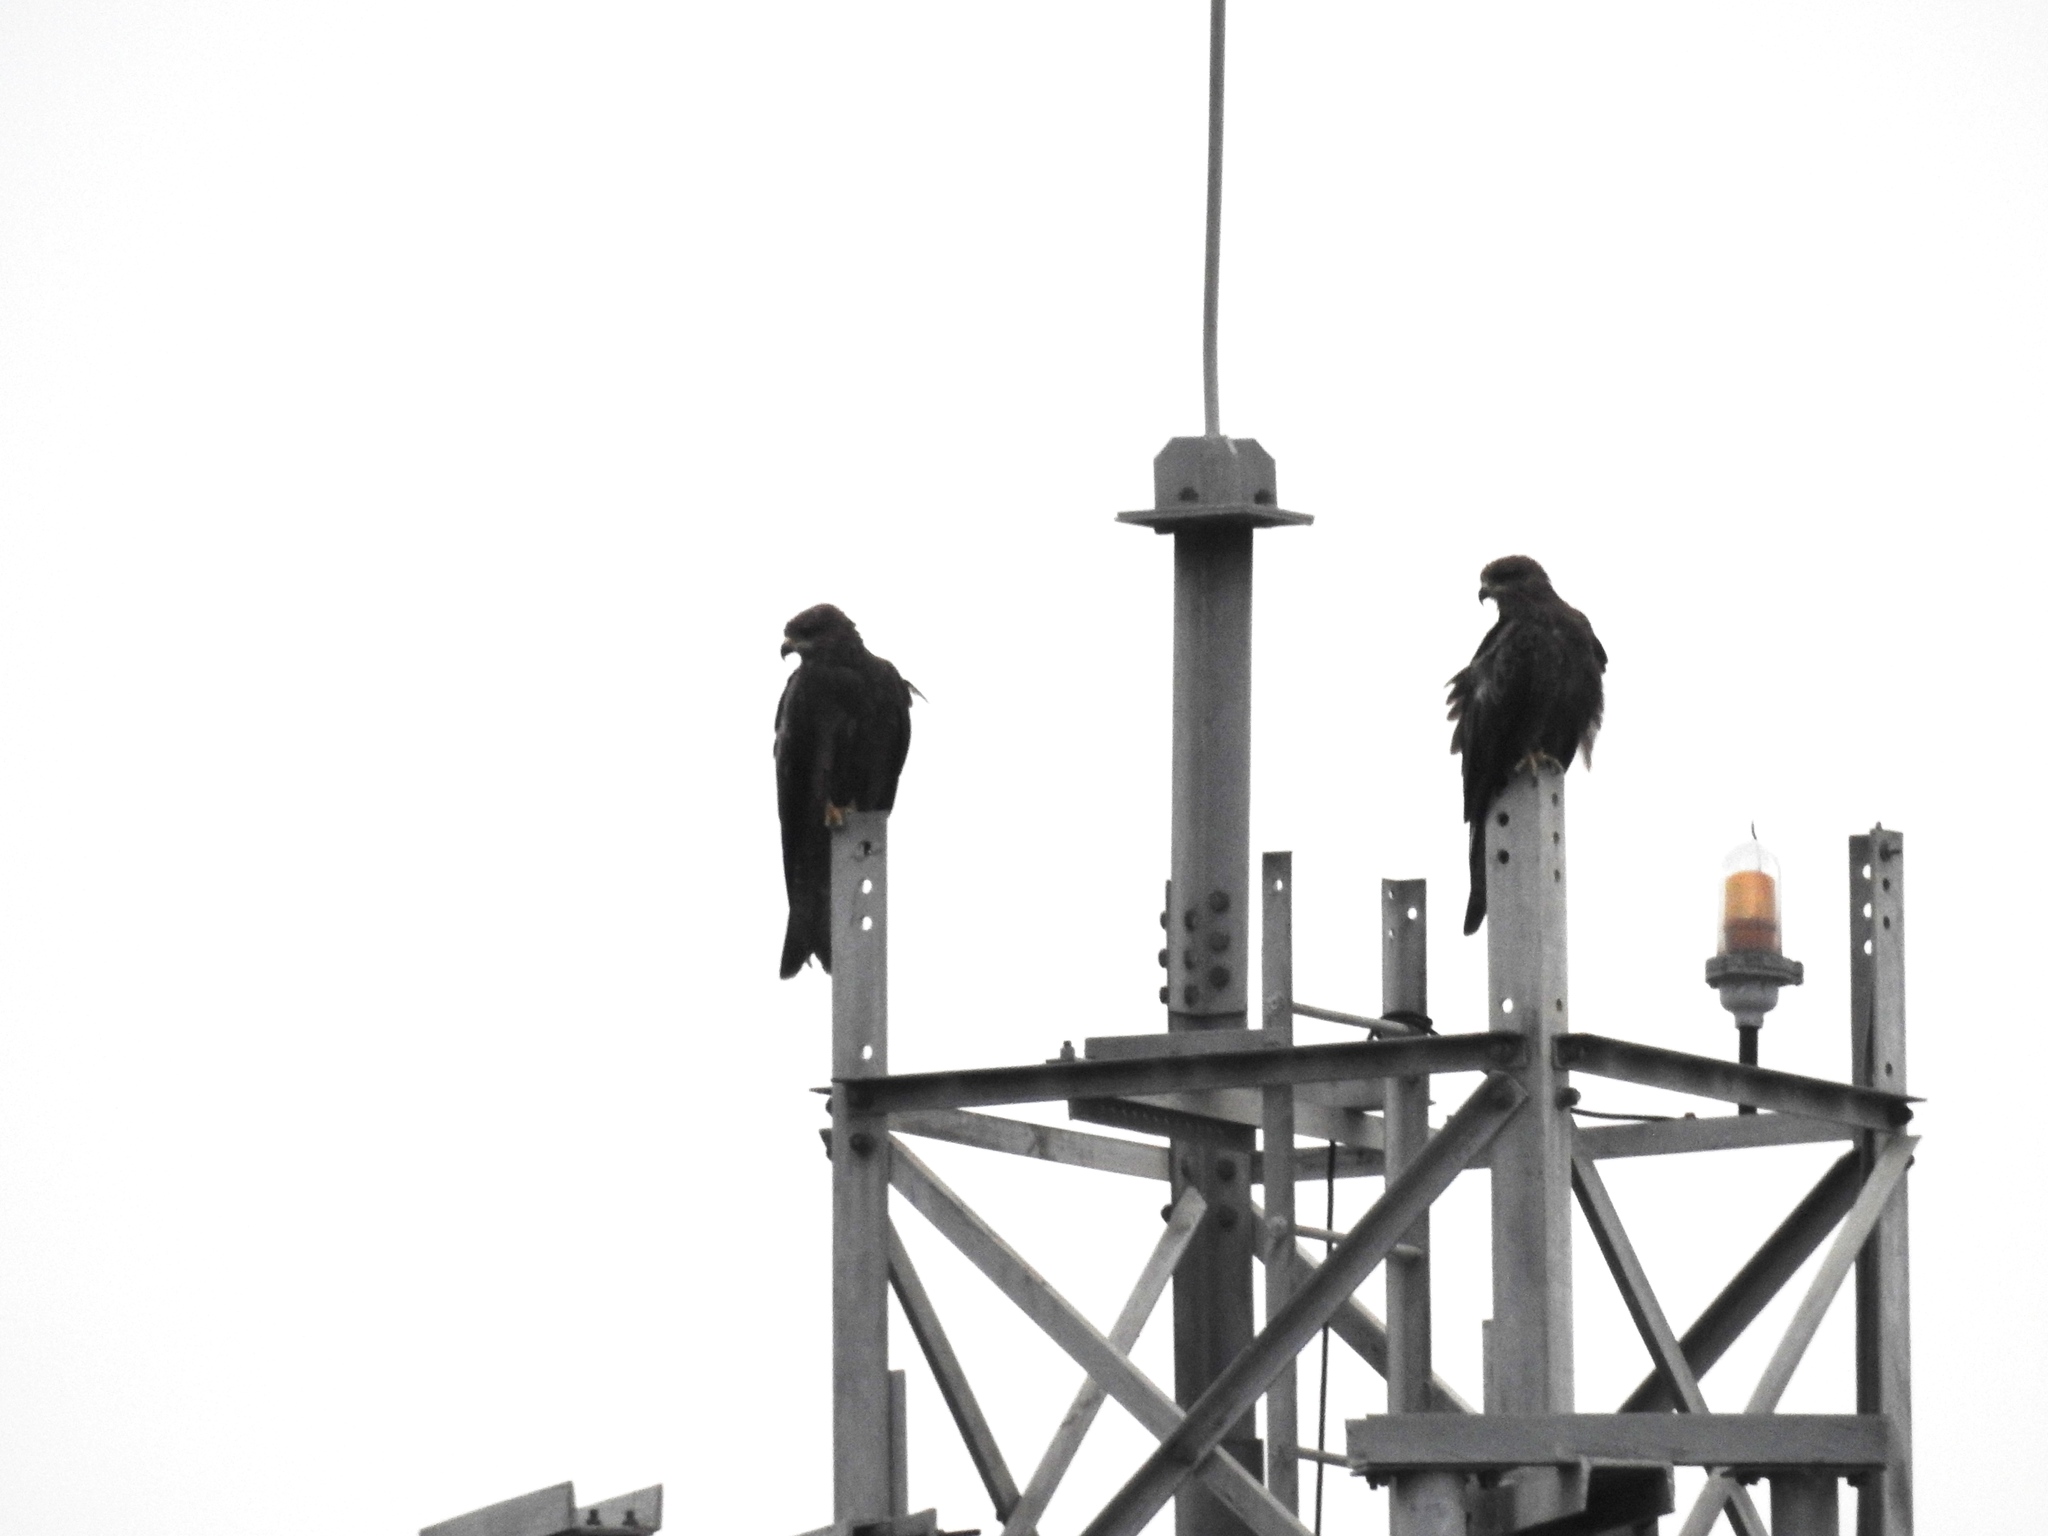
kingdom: Animalia
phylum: Chordata
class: Aves
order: Accipitriformes
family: Accipitridae
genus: Milvus
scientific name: Milvus migrans
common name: Black kite
